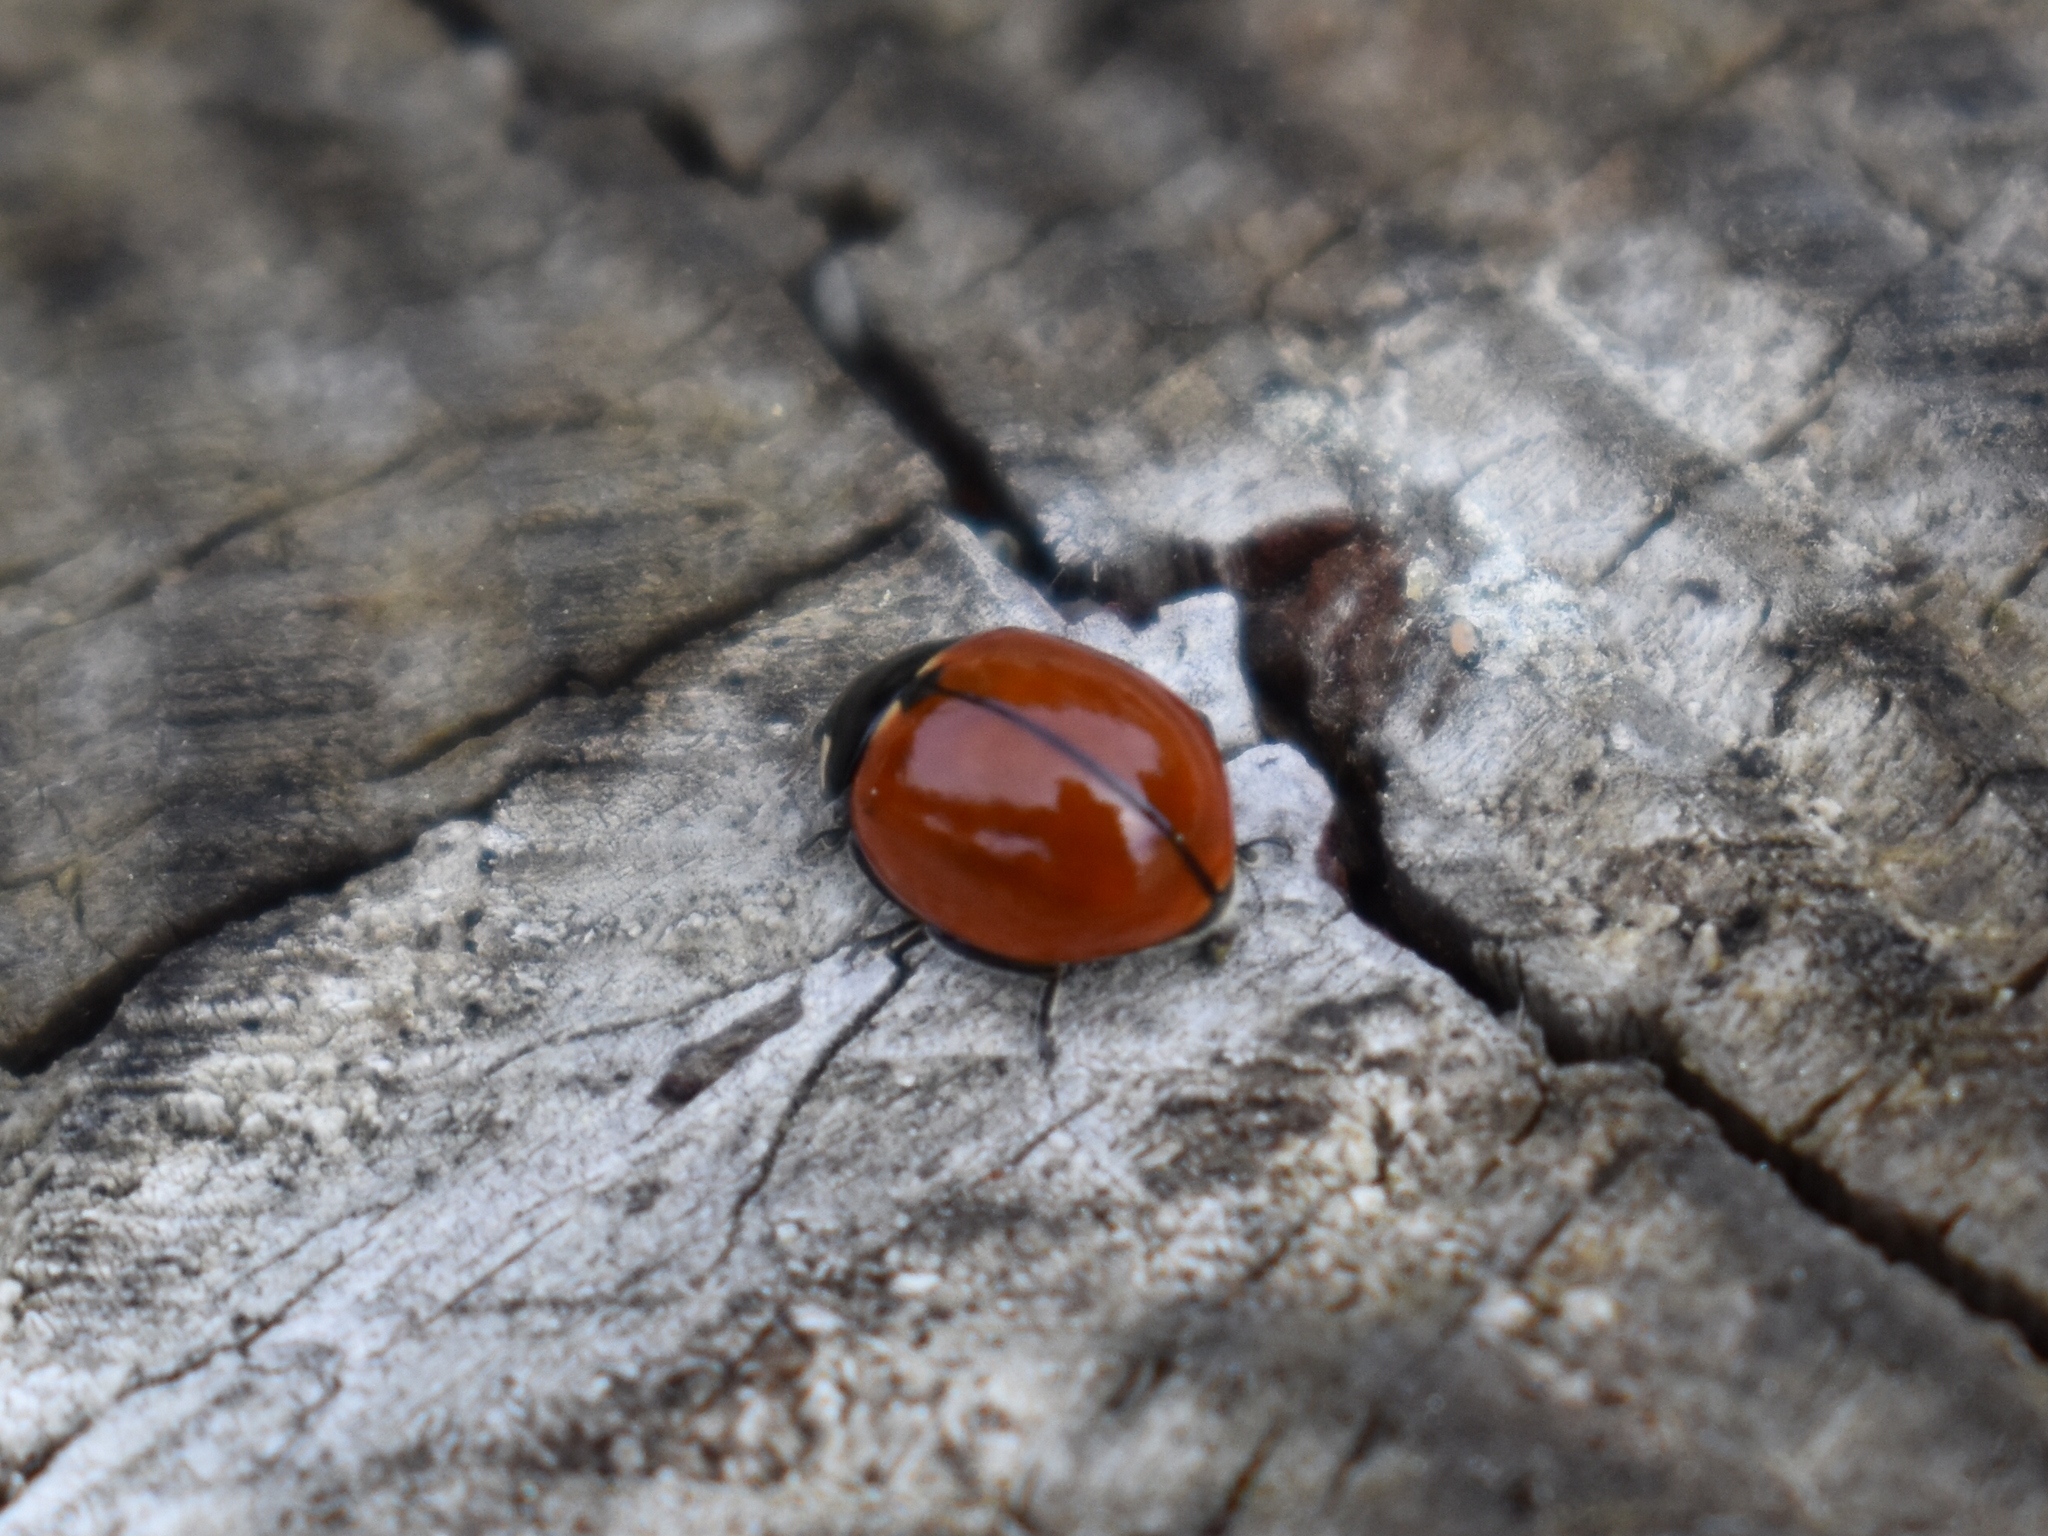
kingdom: Animalia
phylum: Arthropoda
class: Insecta
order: Coleoptera
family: Coccinellidae
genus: Coccinella
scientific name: Coccinella californica
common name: Lady beetle
